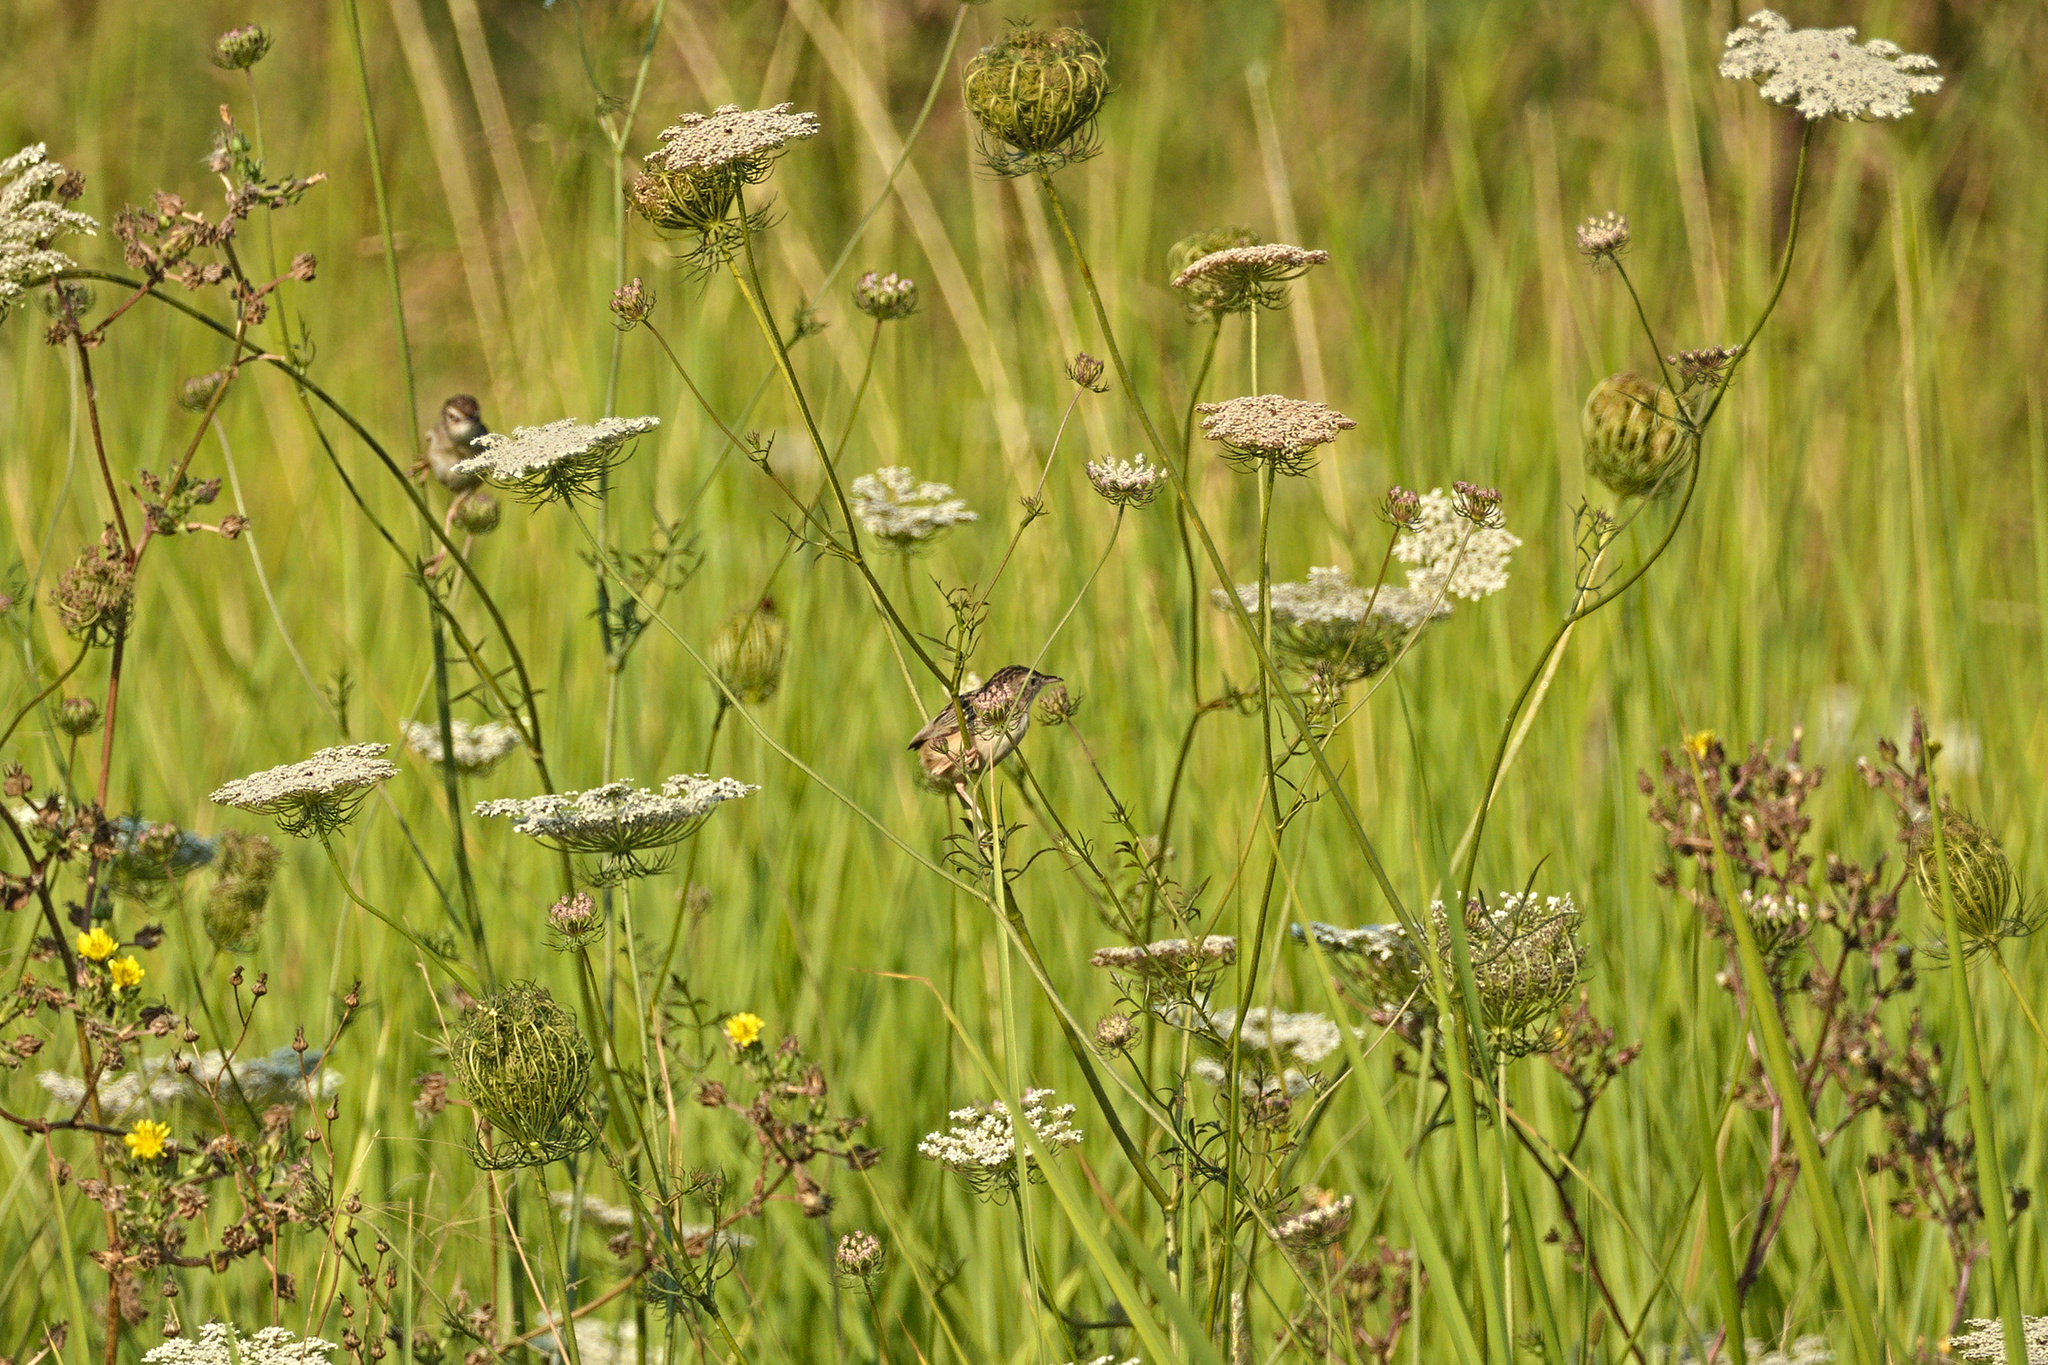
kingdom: Plantae
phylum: Tracheophyta
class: Magnoliopsida
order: Apiales
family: Apiaceae
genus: Daucus
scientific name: Daucus carota
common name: Wild carrot
